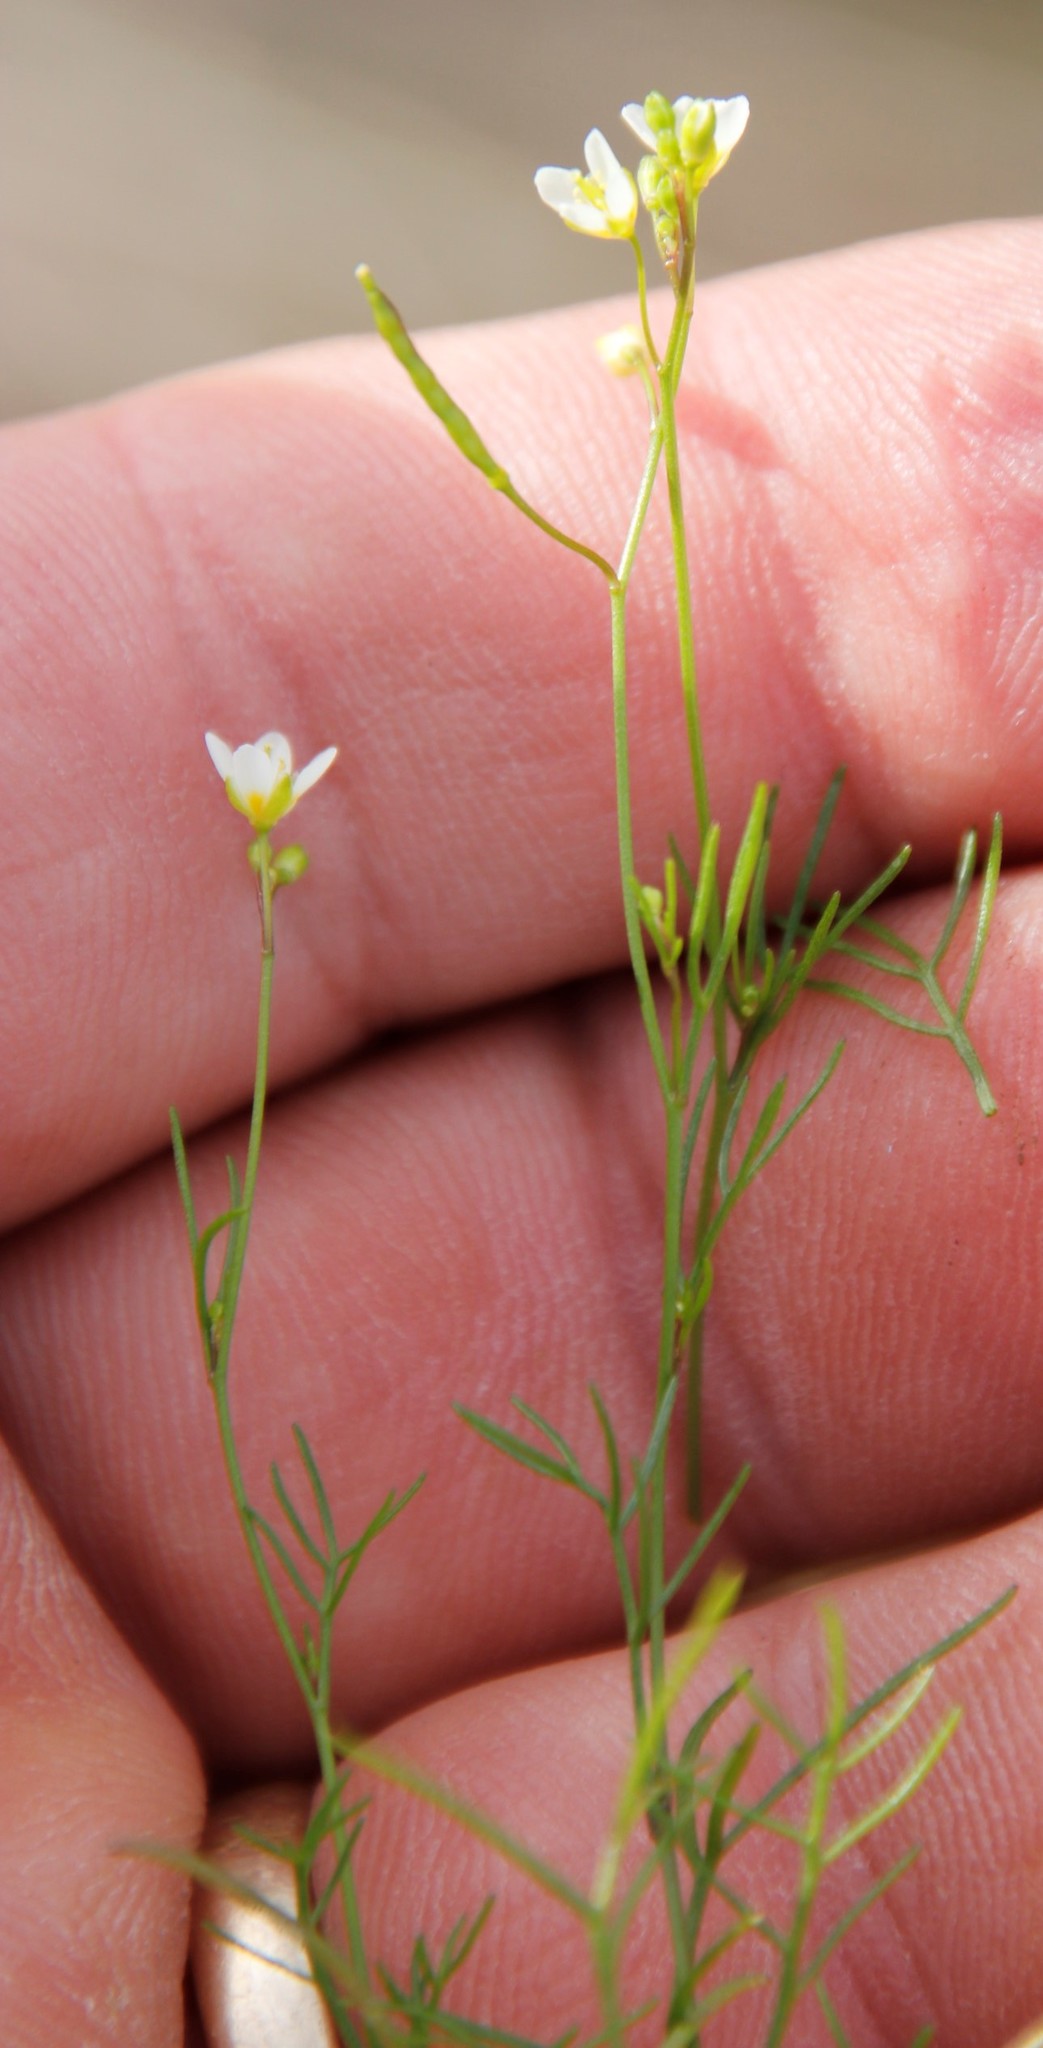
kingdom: Plantae
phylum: Tracheophyta
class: Magnoliopsida
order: Brassicales
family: Brassicaceae
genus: Heliophila
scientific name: Heliophila minor
